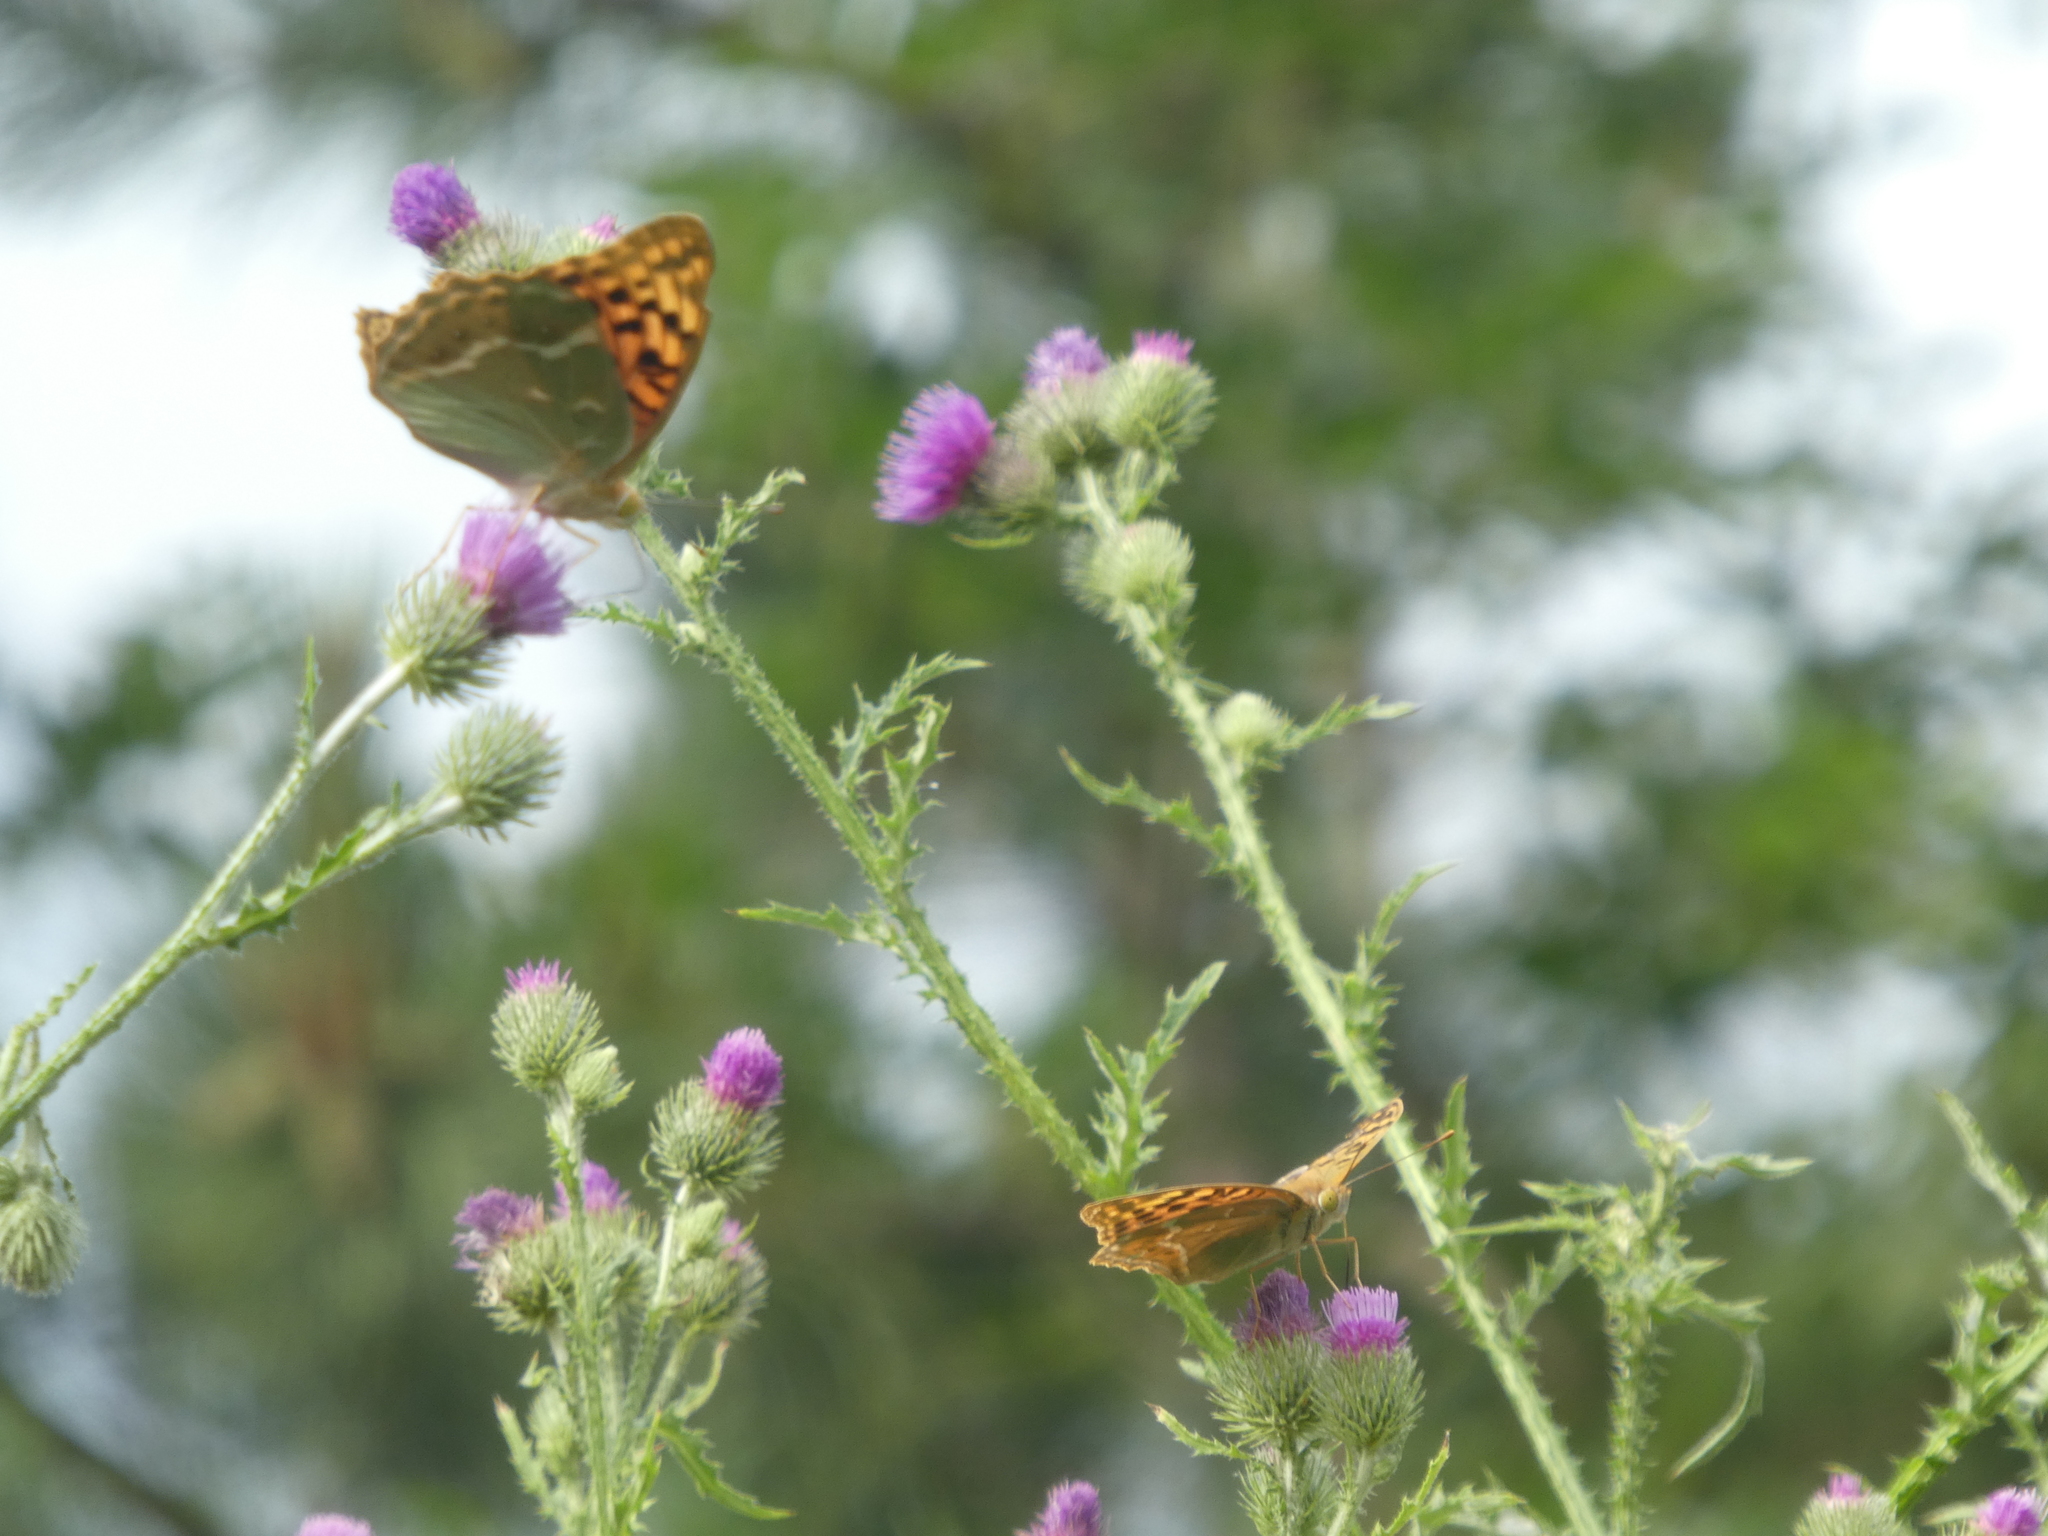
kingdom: Animalia
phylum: Arthropoda
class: Insecta
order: Lepidoptera
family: Nymphalidae
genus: Damora
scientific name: Damora pandora
